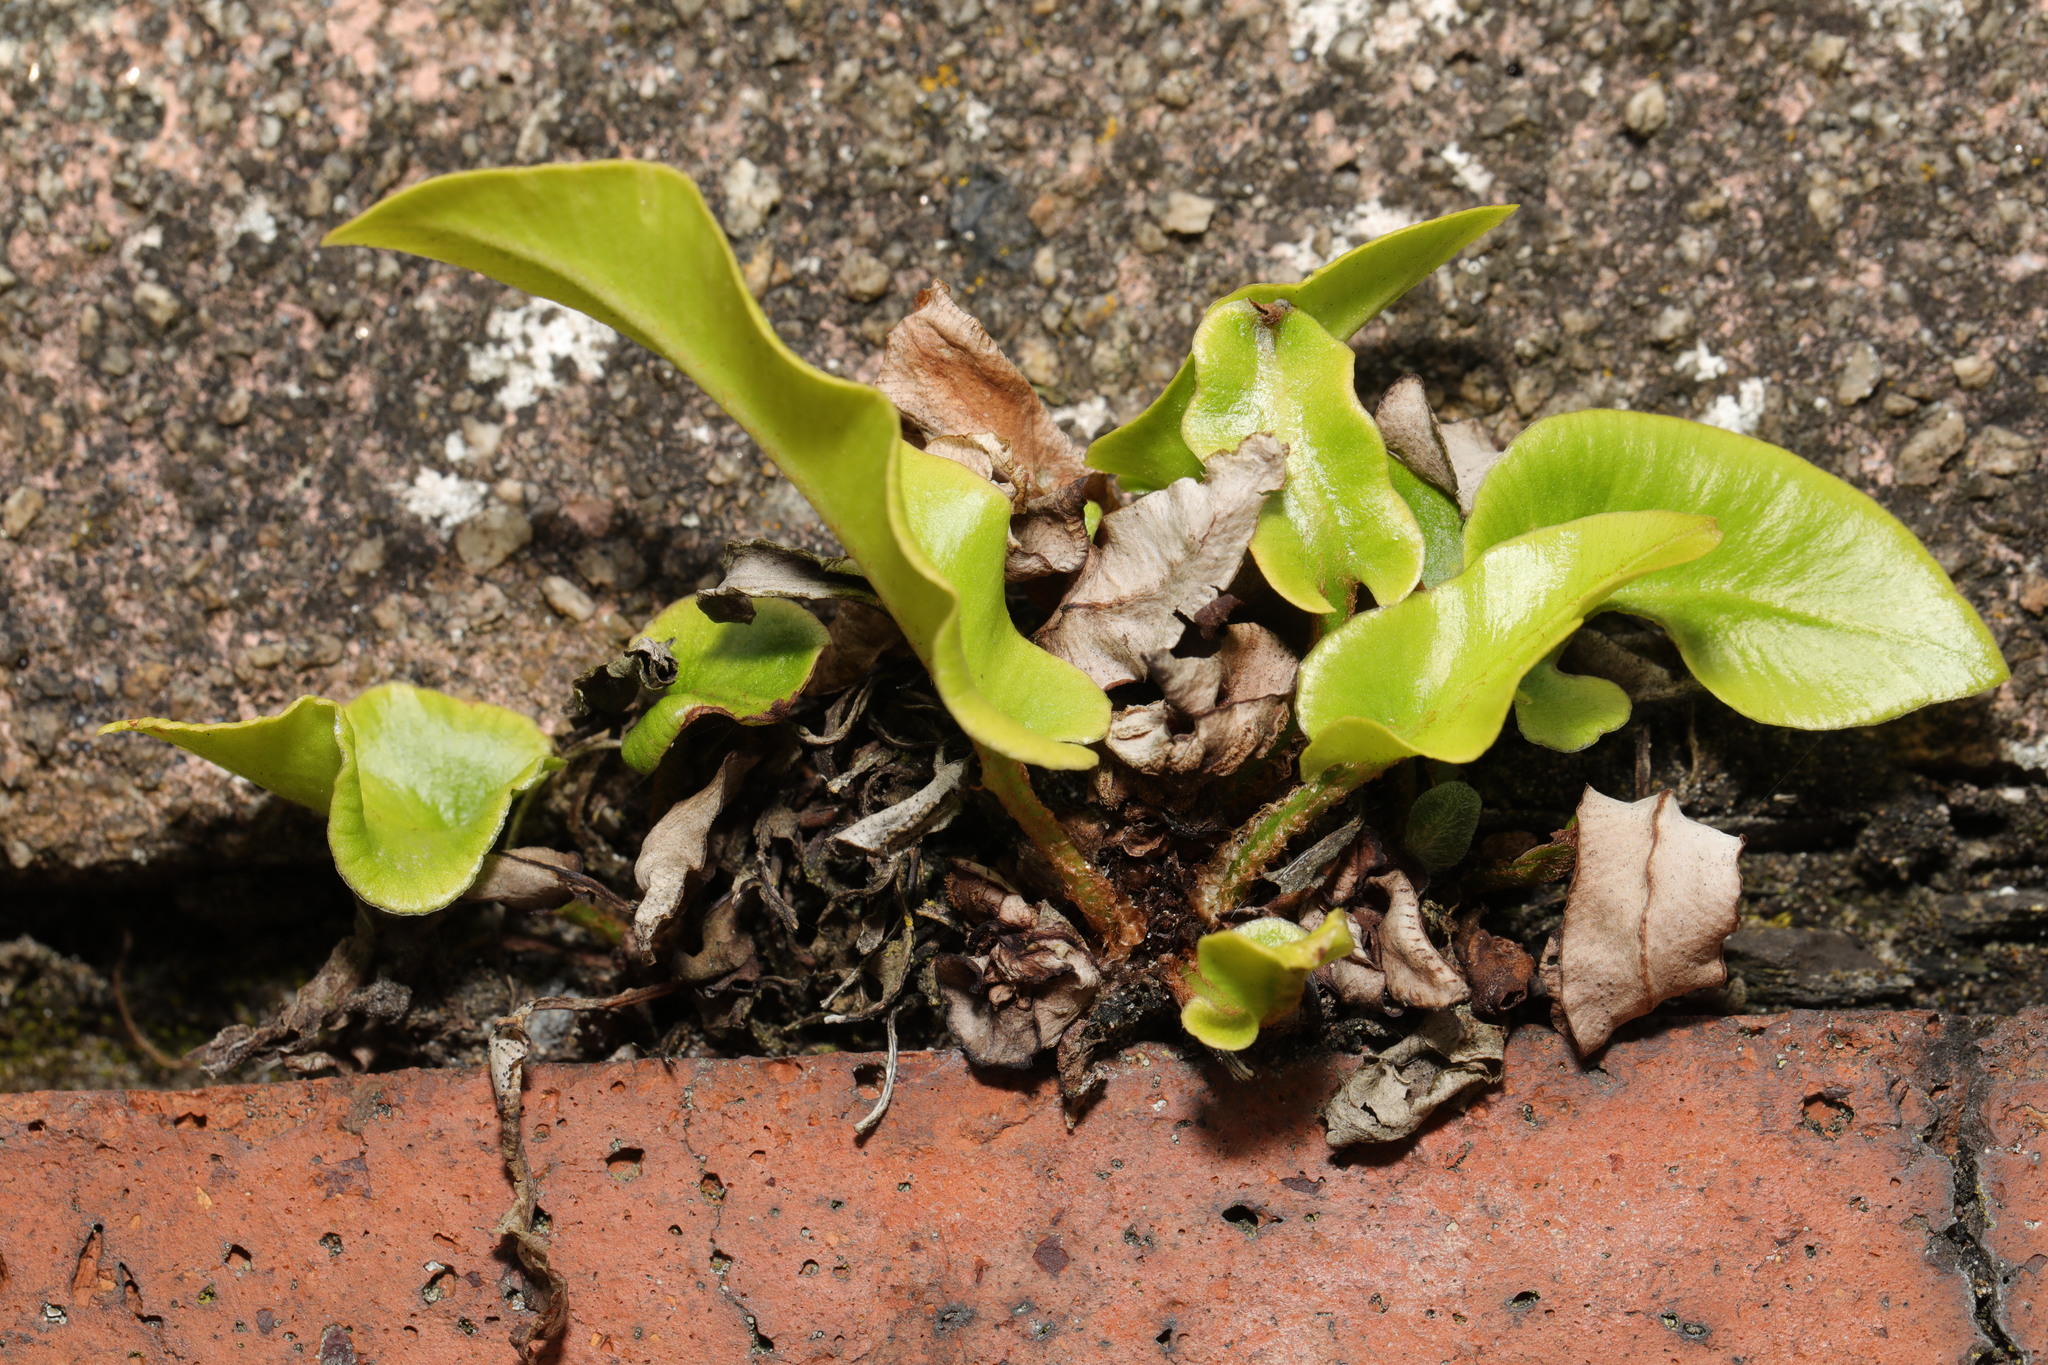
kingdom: Plantae
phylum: Tracheophyta
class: Polypodiopsida
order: Polypodiales
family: Aspleniaceae
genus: Asplenium
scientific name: Asplenium scolopendrium
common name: Hart's-tongue fern
